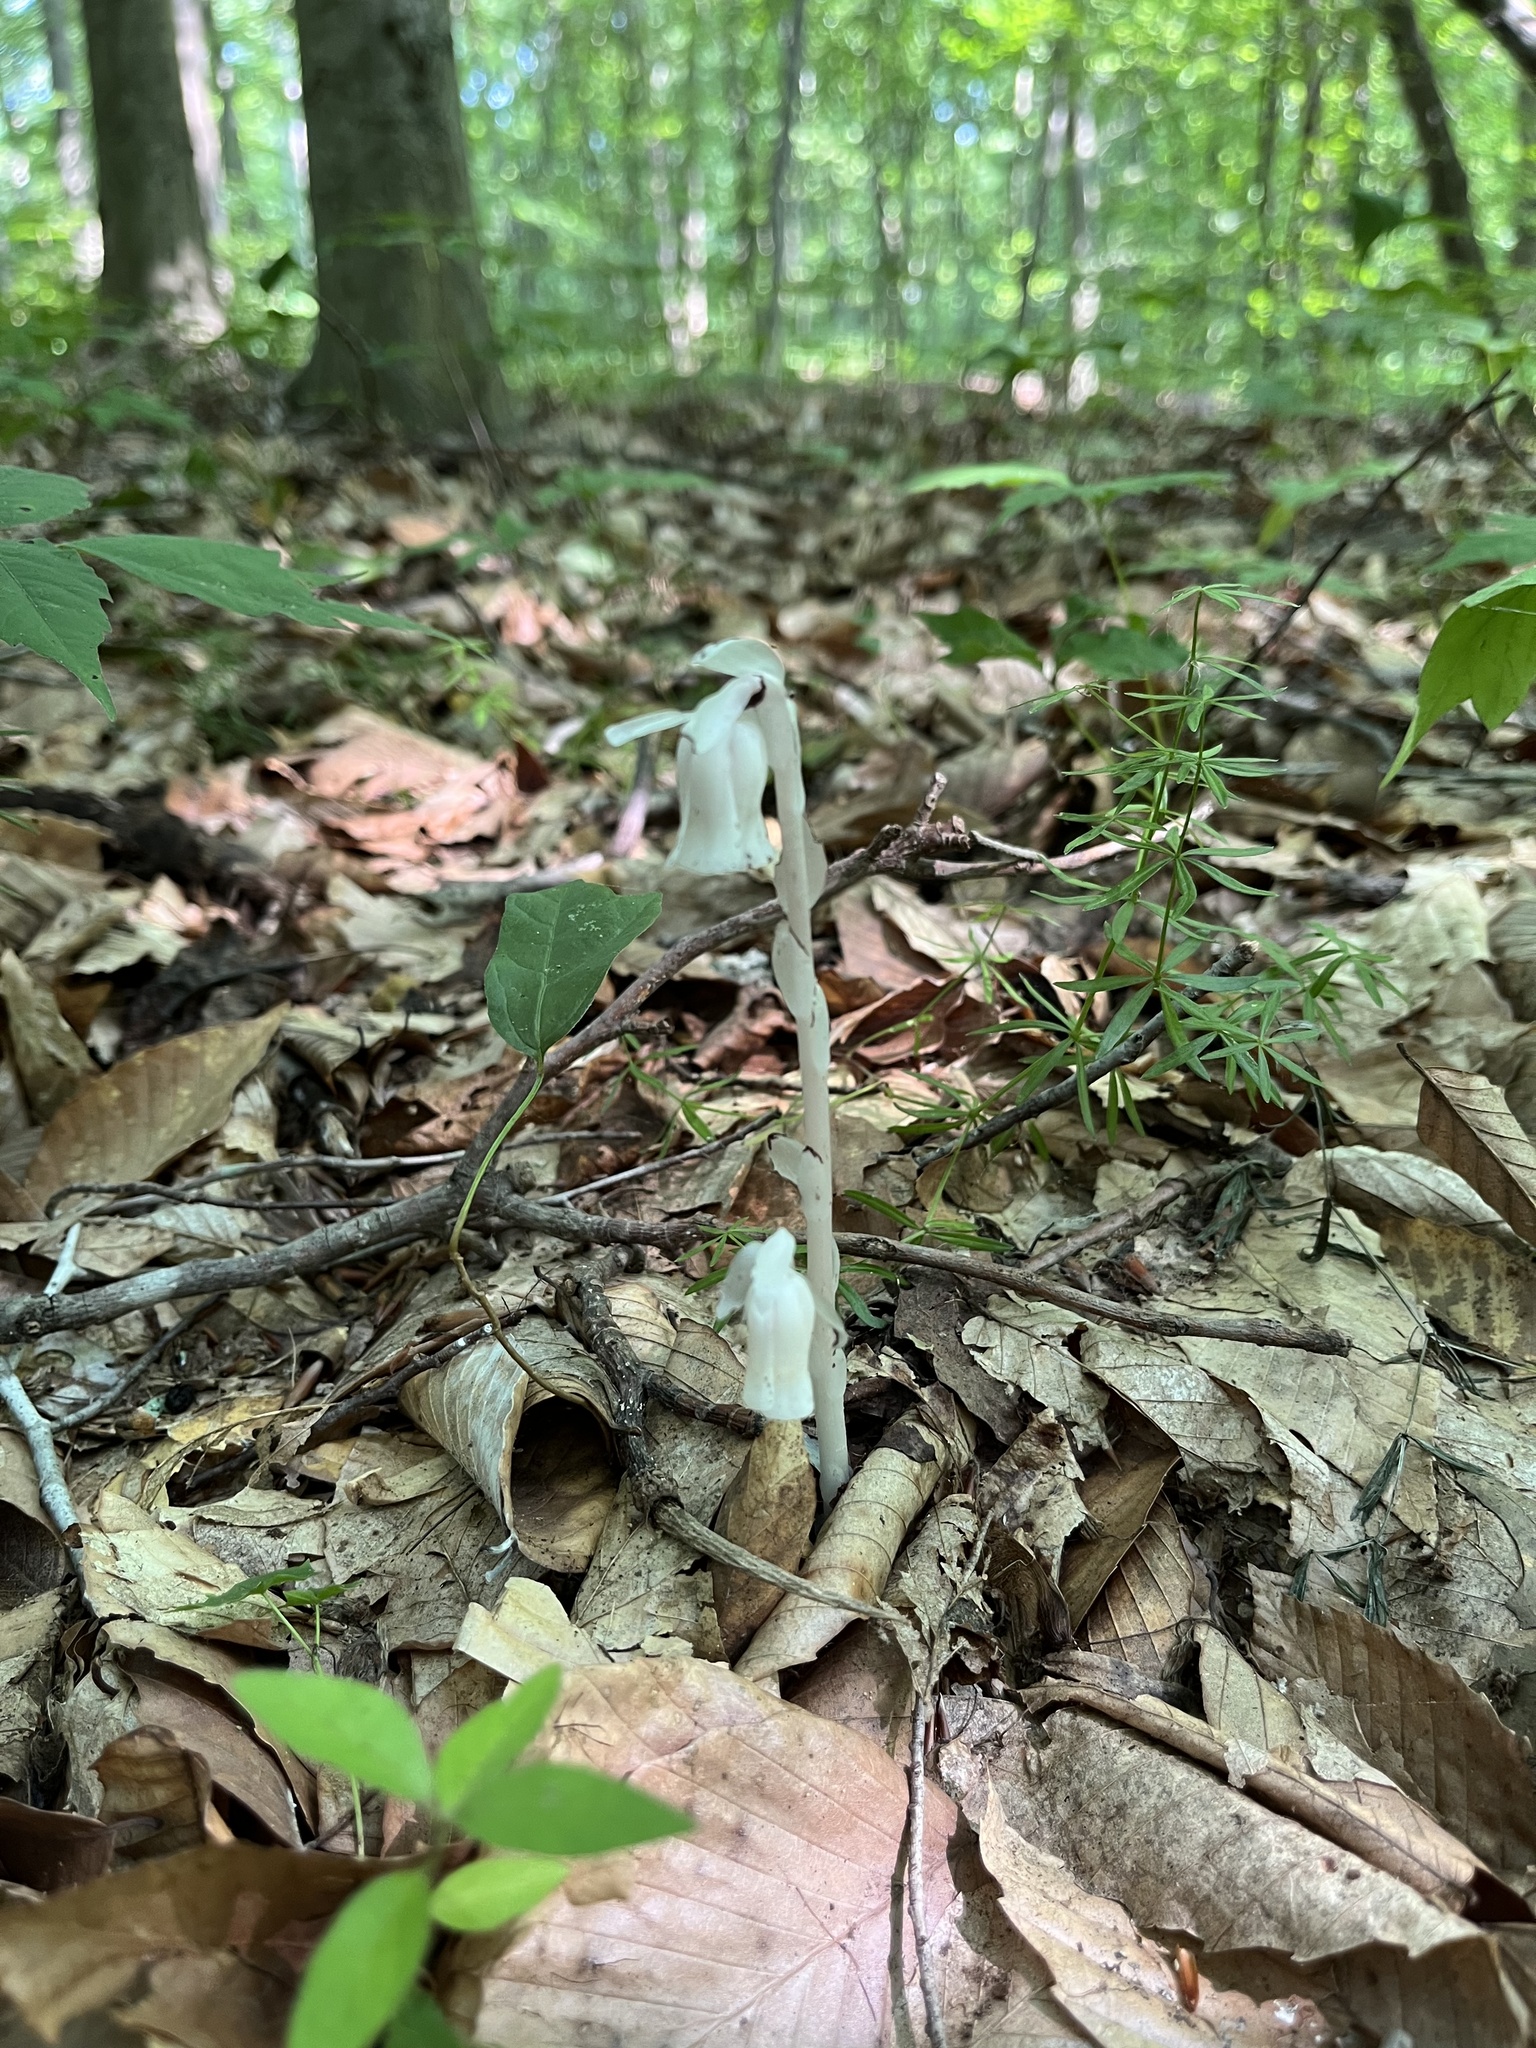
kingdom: Plantae
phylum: Tracheophyta
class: Magnoliopsida
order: Ericales
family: Ericaceae
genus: Monotropa
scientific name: Monotropa uniflora
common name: Convulsion root
